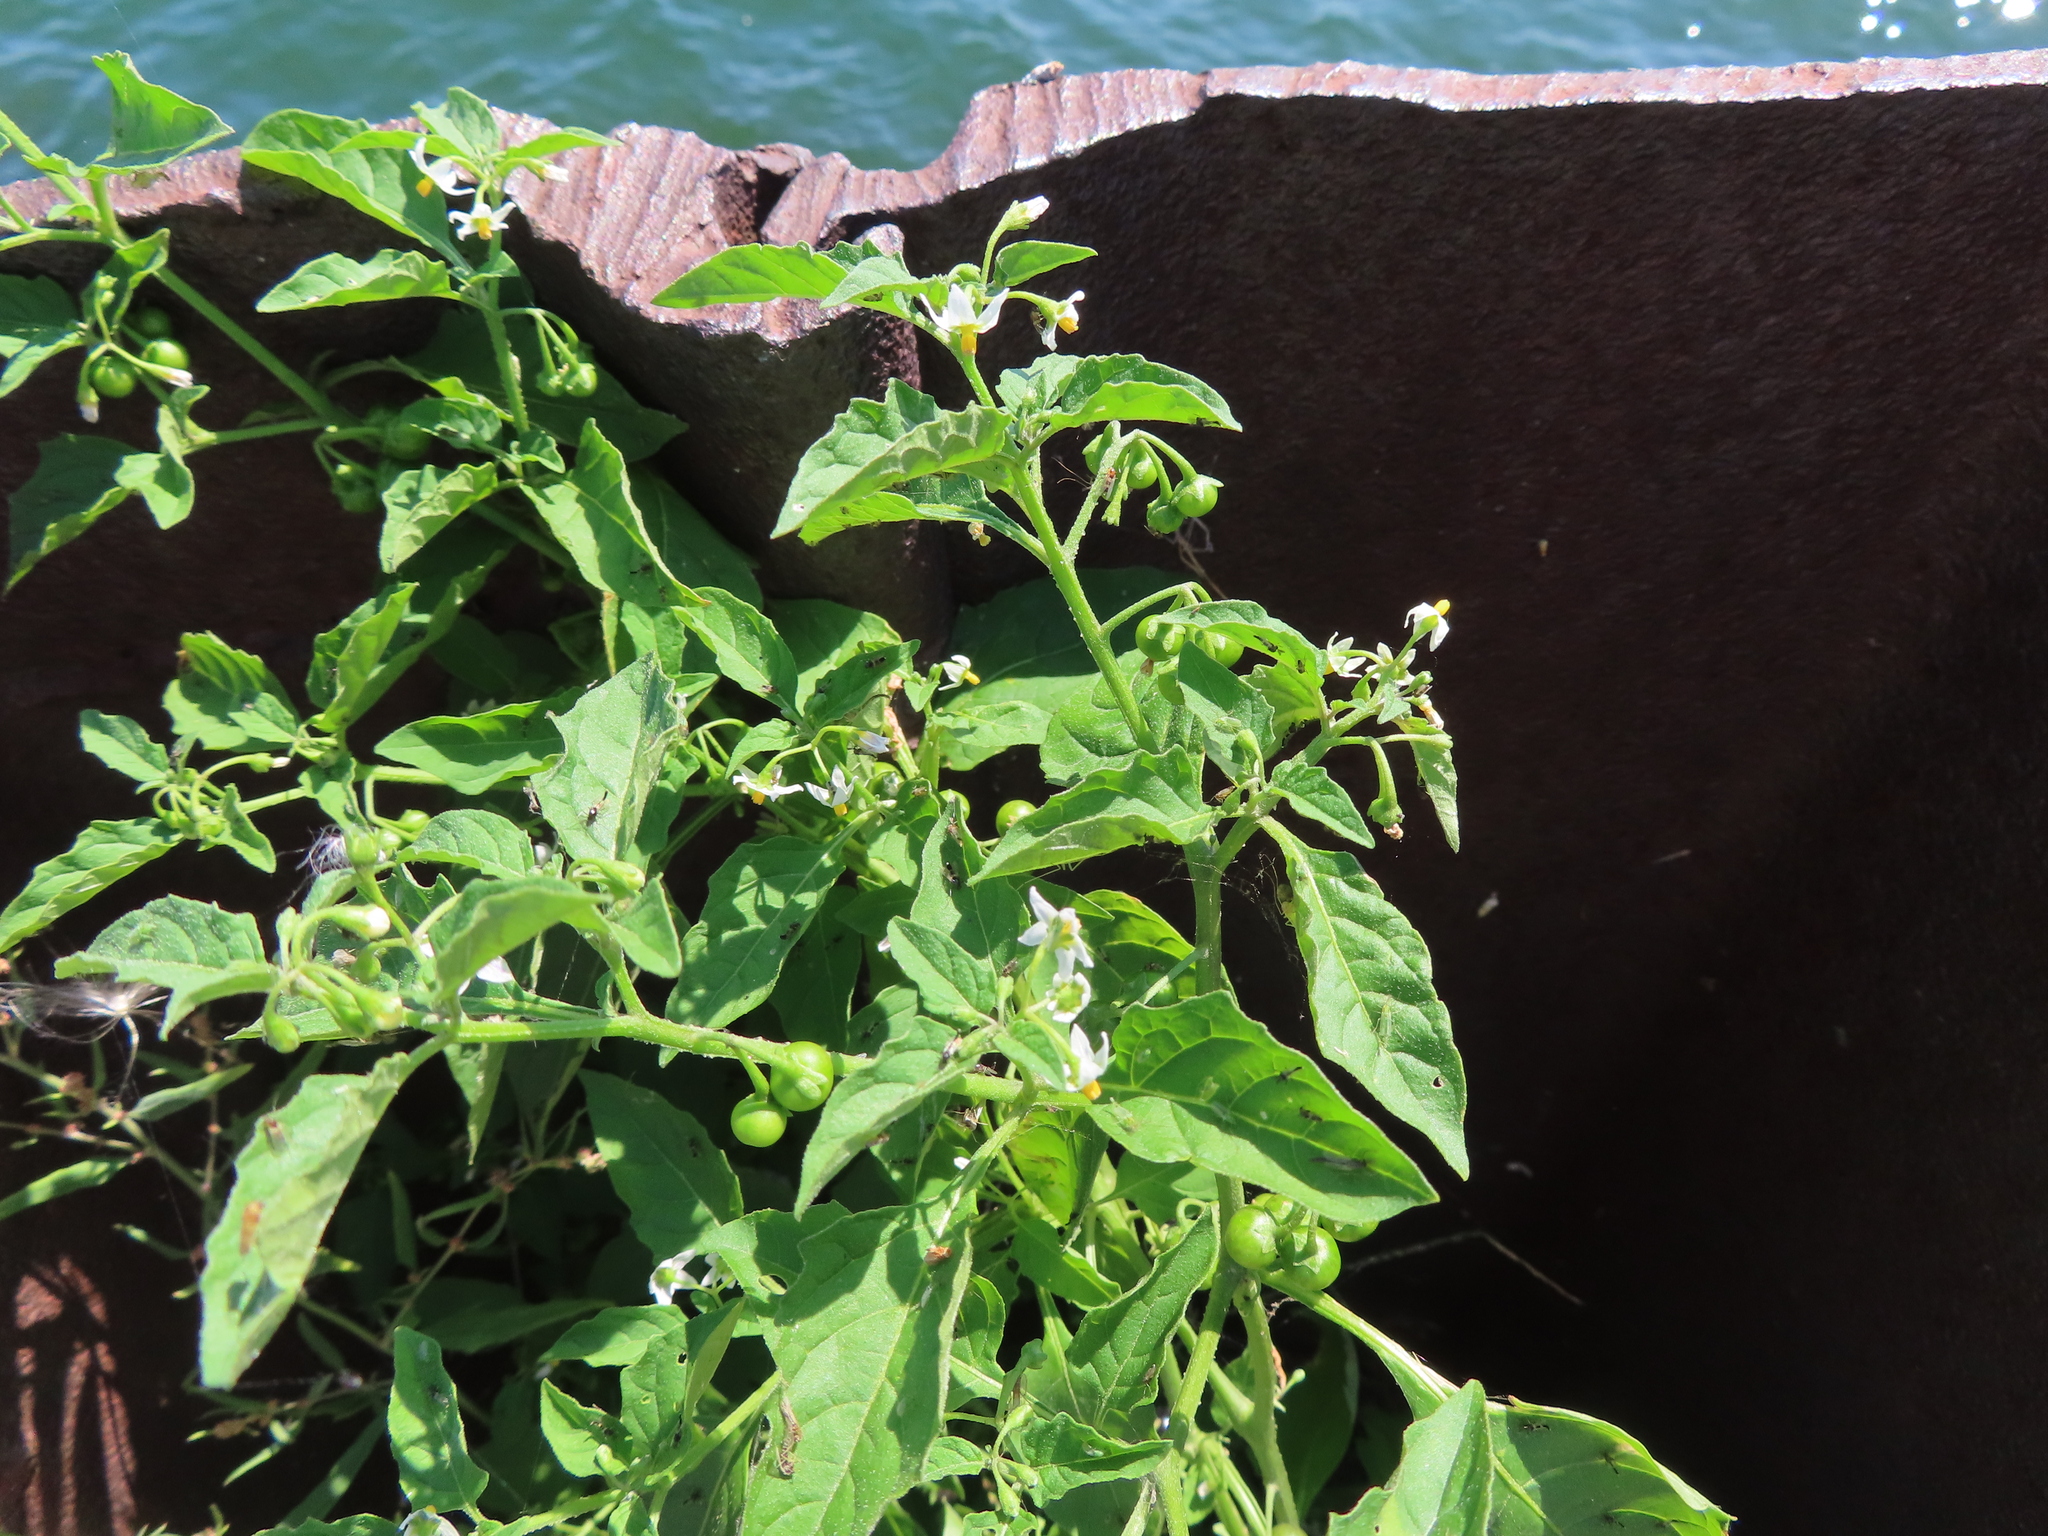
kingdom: Plantae
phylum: Tracheophyta
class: Magnoliopsida
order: Solanales
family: Solanaceae
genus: Solanum
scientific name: Solanum emulans
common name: Eastern black nightshade
